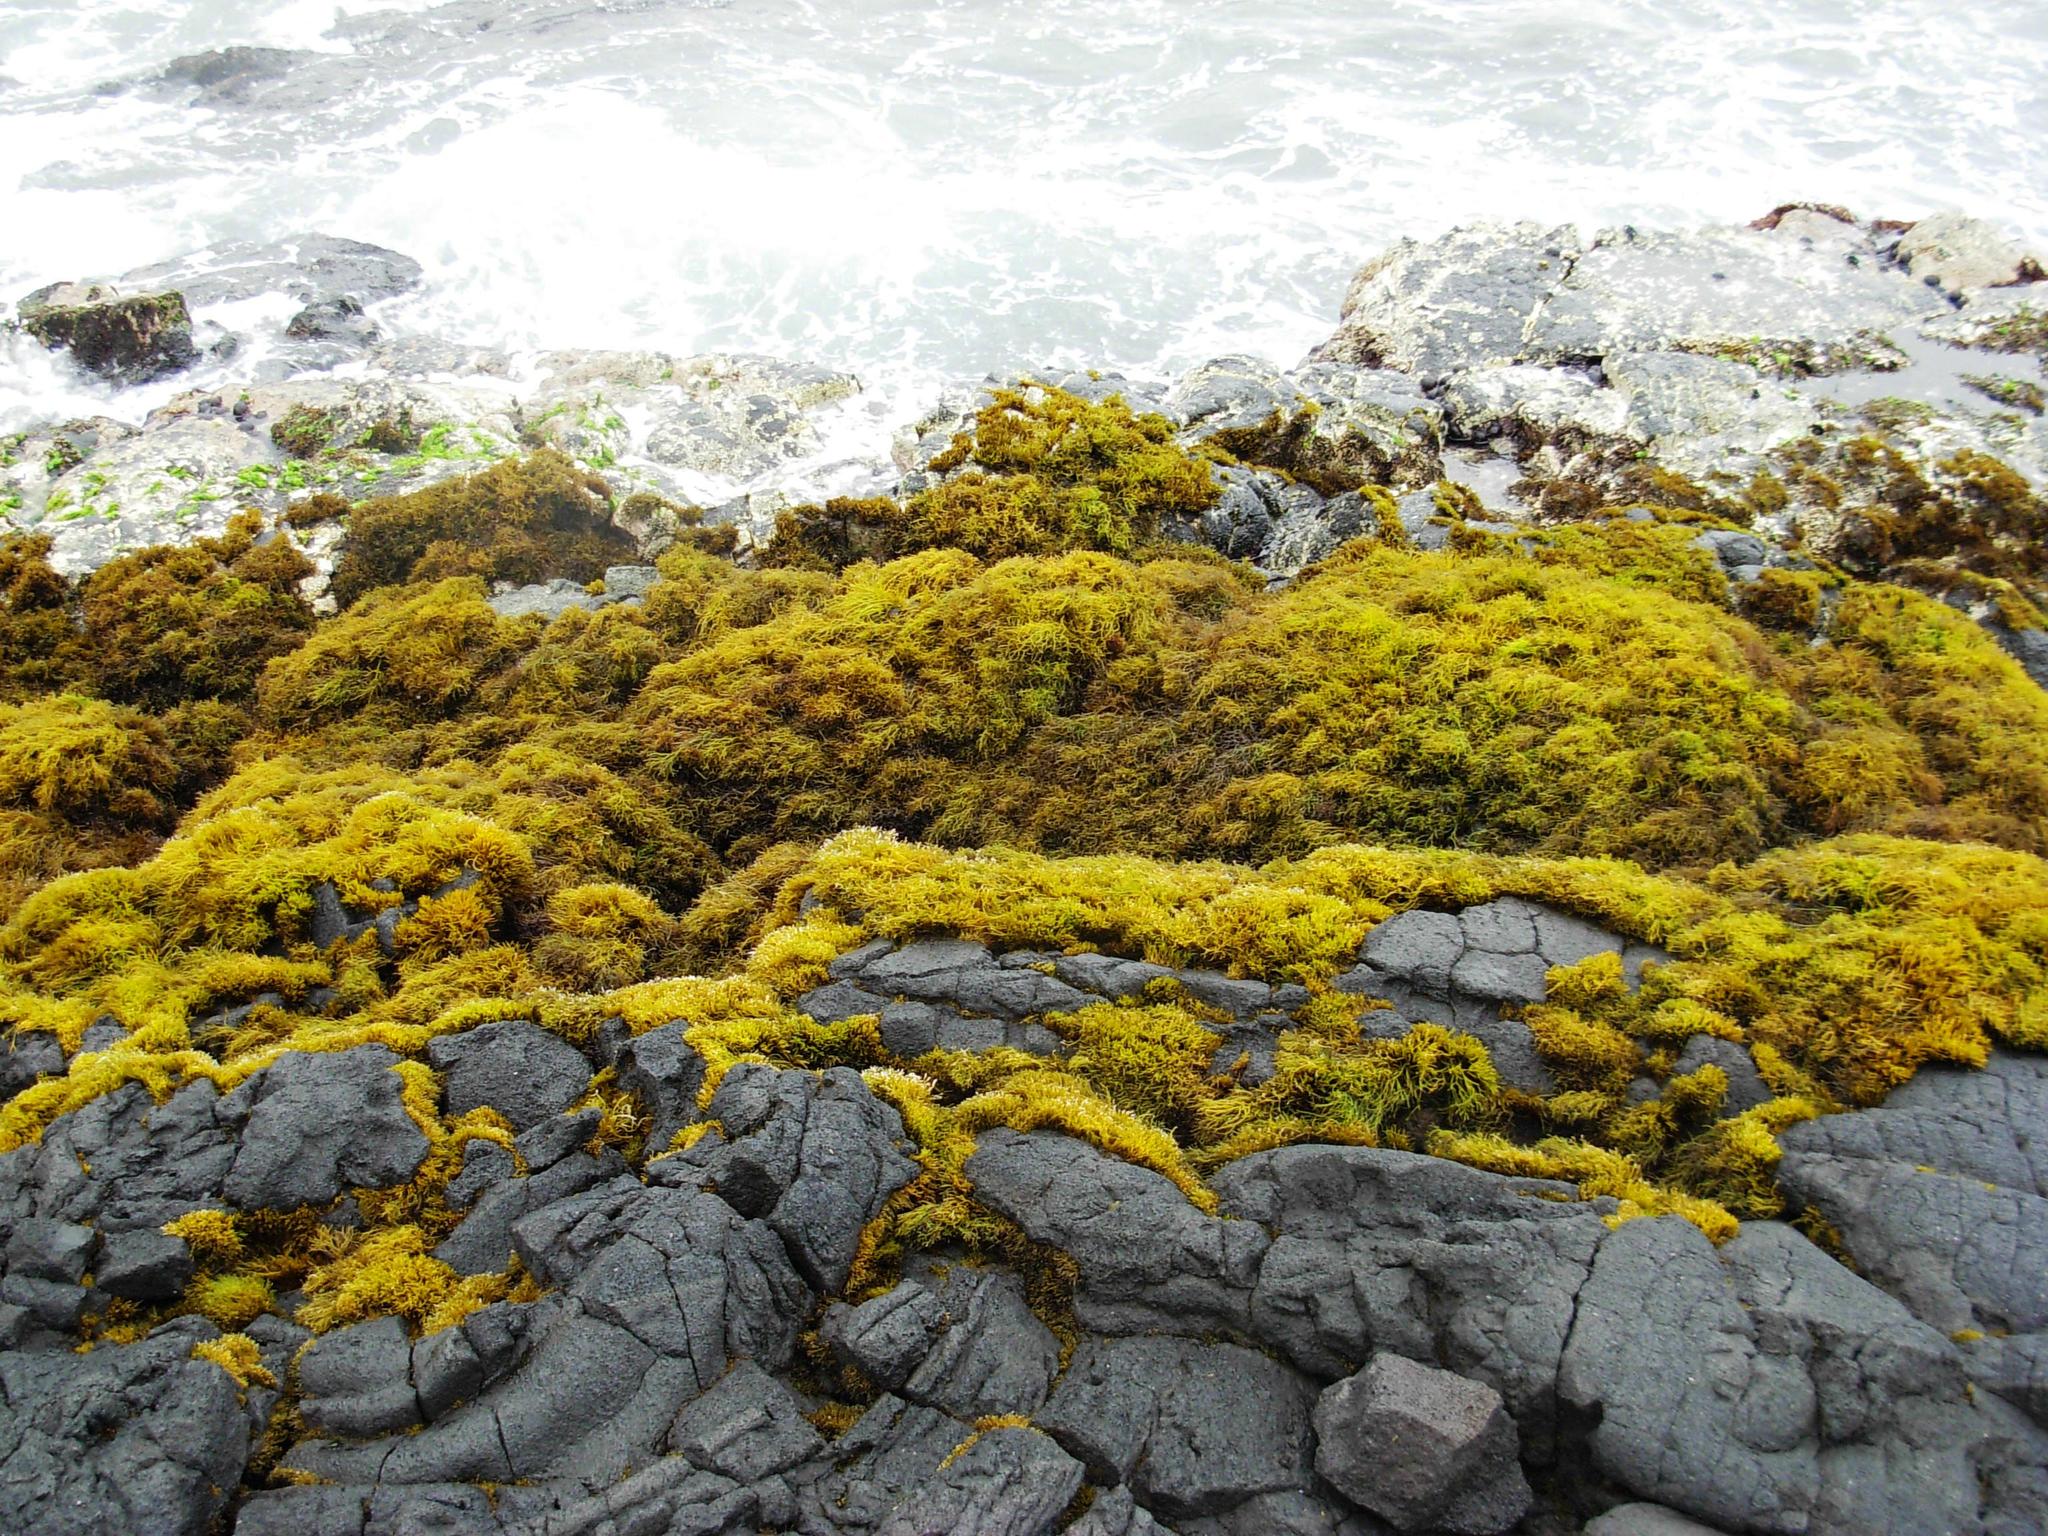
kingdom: Plantae
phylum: Rhodophyta
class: Florideophyceae
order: Gigartinales
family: Phyllophoraceae
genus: Gymnogongrus
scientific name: Gymnogongrus durvillei
